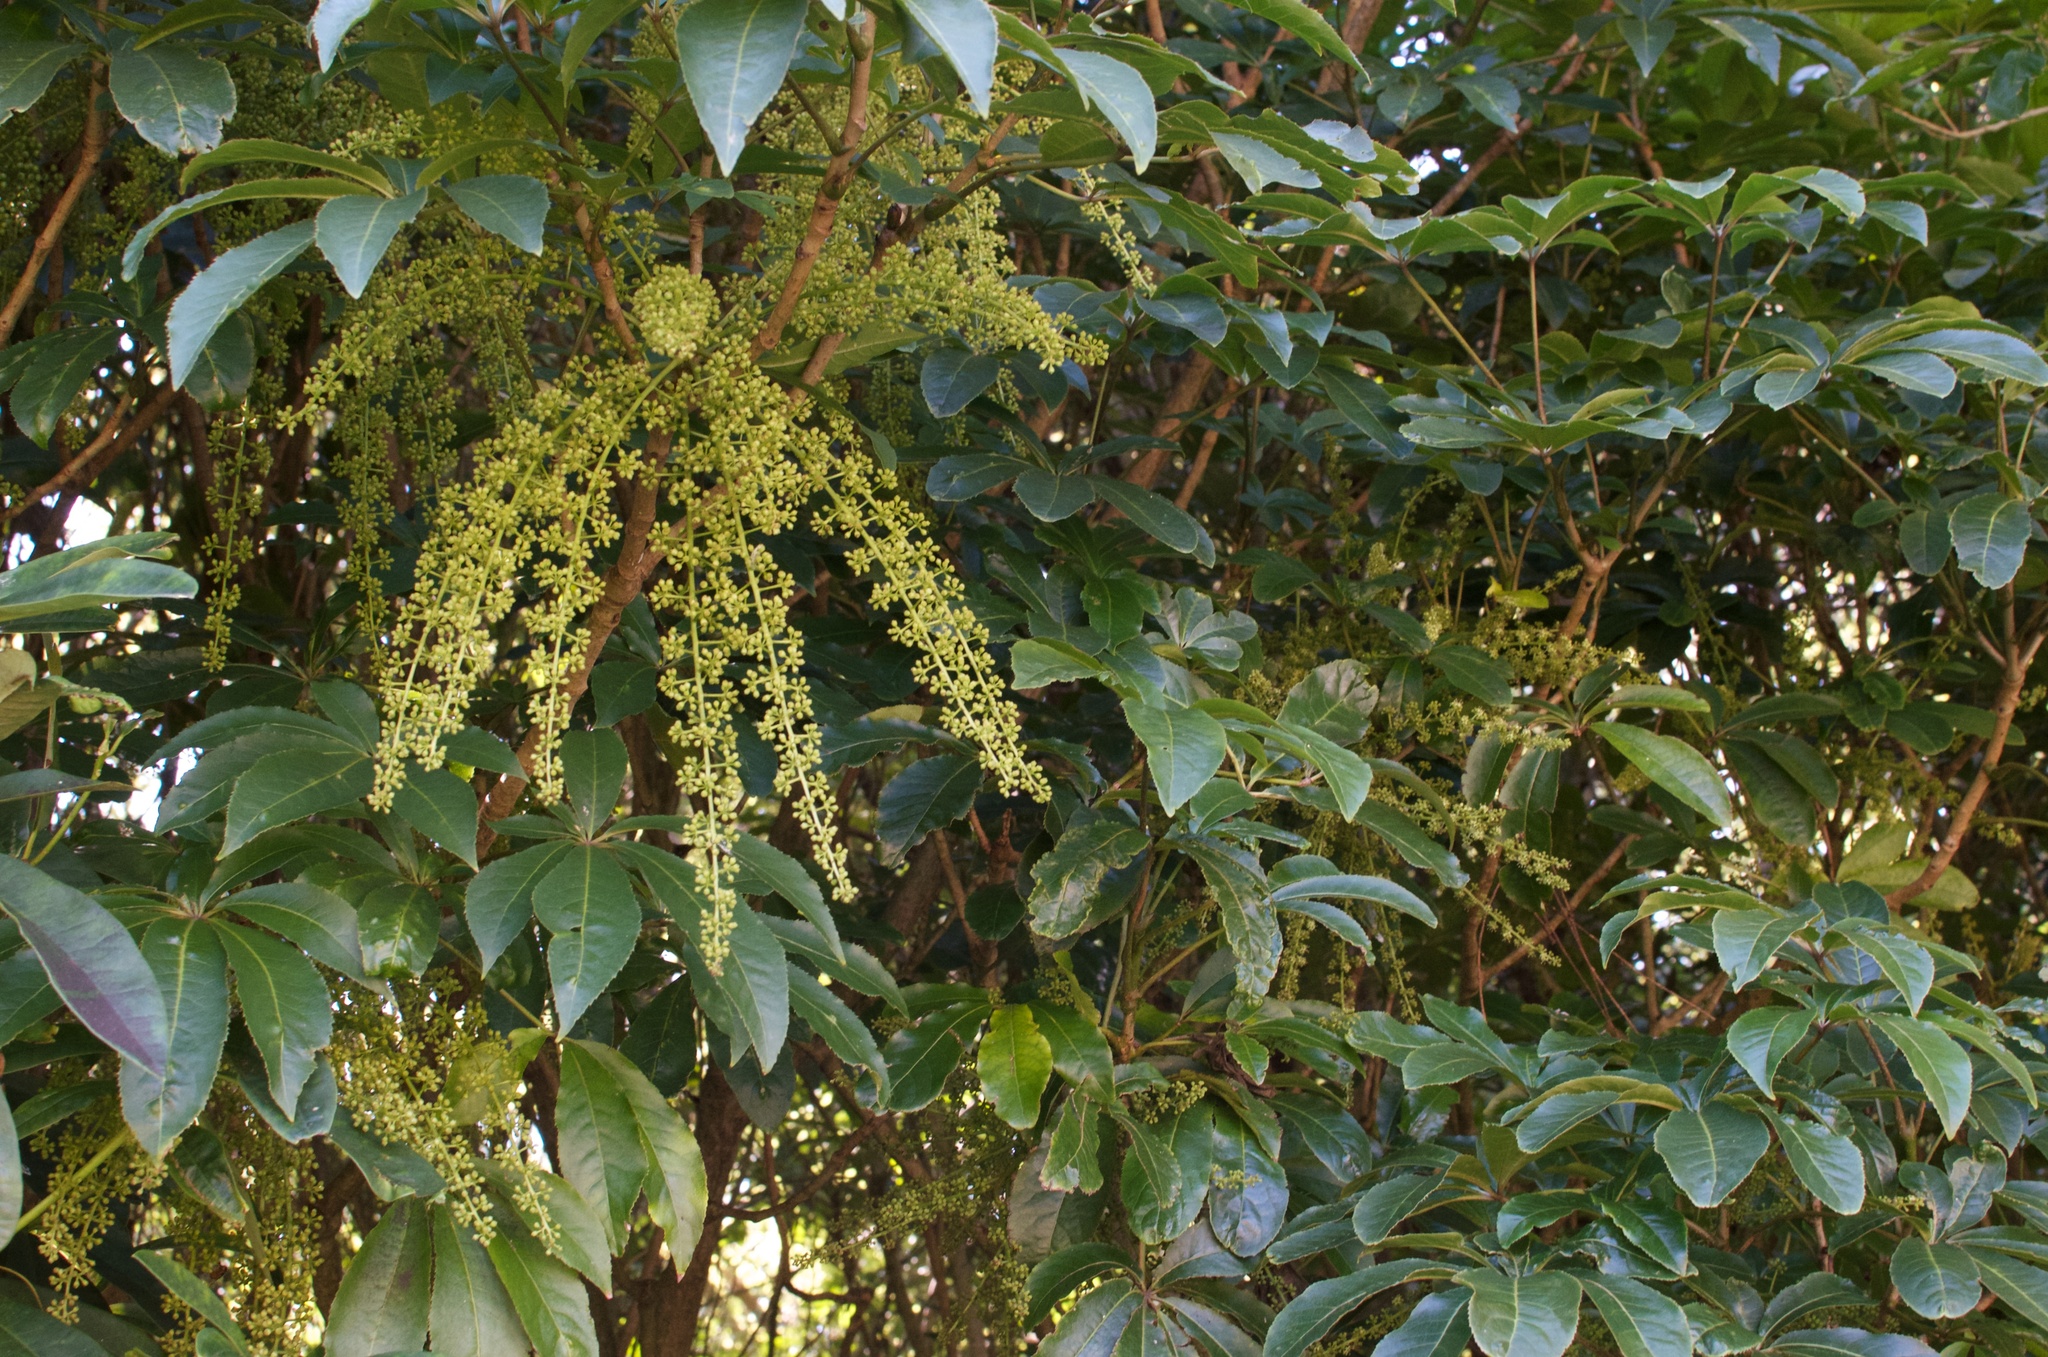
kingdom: Plantae
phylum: Tracheophyta
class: Magnoliopsida
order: Apiales
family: Araliaceae
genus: Schefflera
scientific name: Schefflera digitata
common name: Pate
